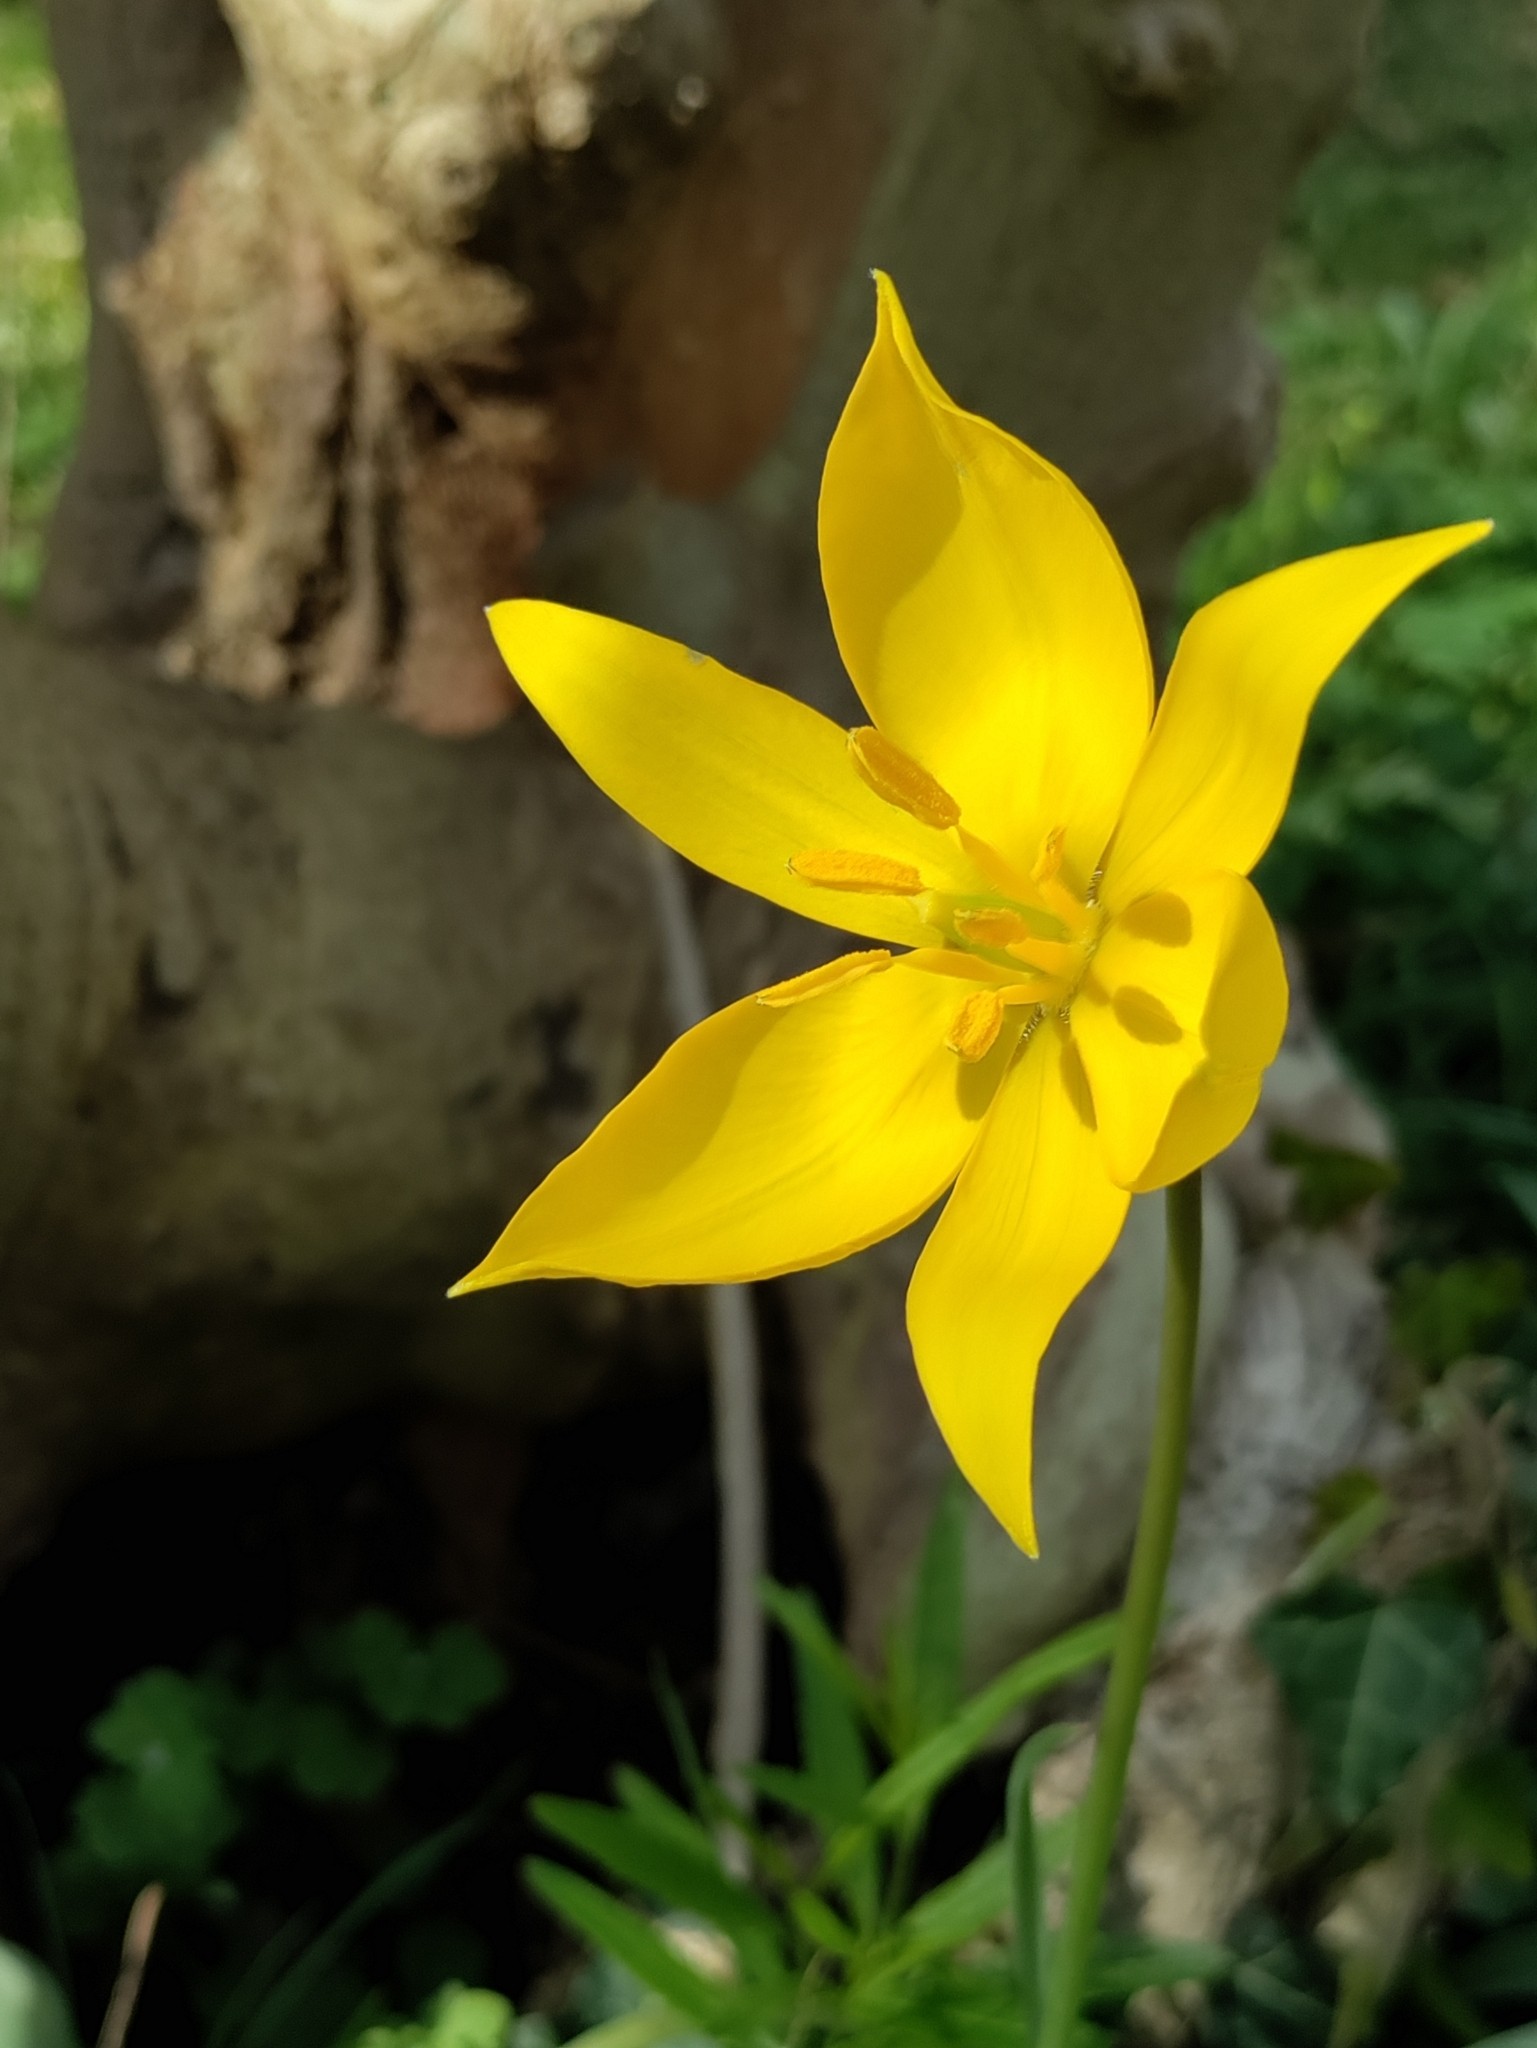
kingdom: Plantae
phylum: Tracheophyta
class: Liliopsida
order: Liliales
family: Liliaceae
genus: Tulipa
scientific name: Tulipa sylvestris
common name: Wild tulip
